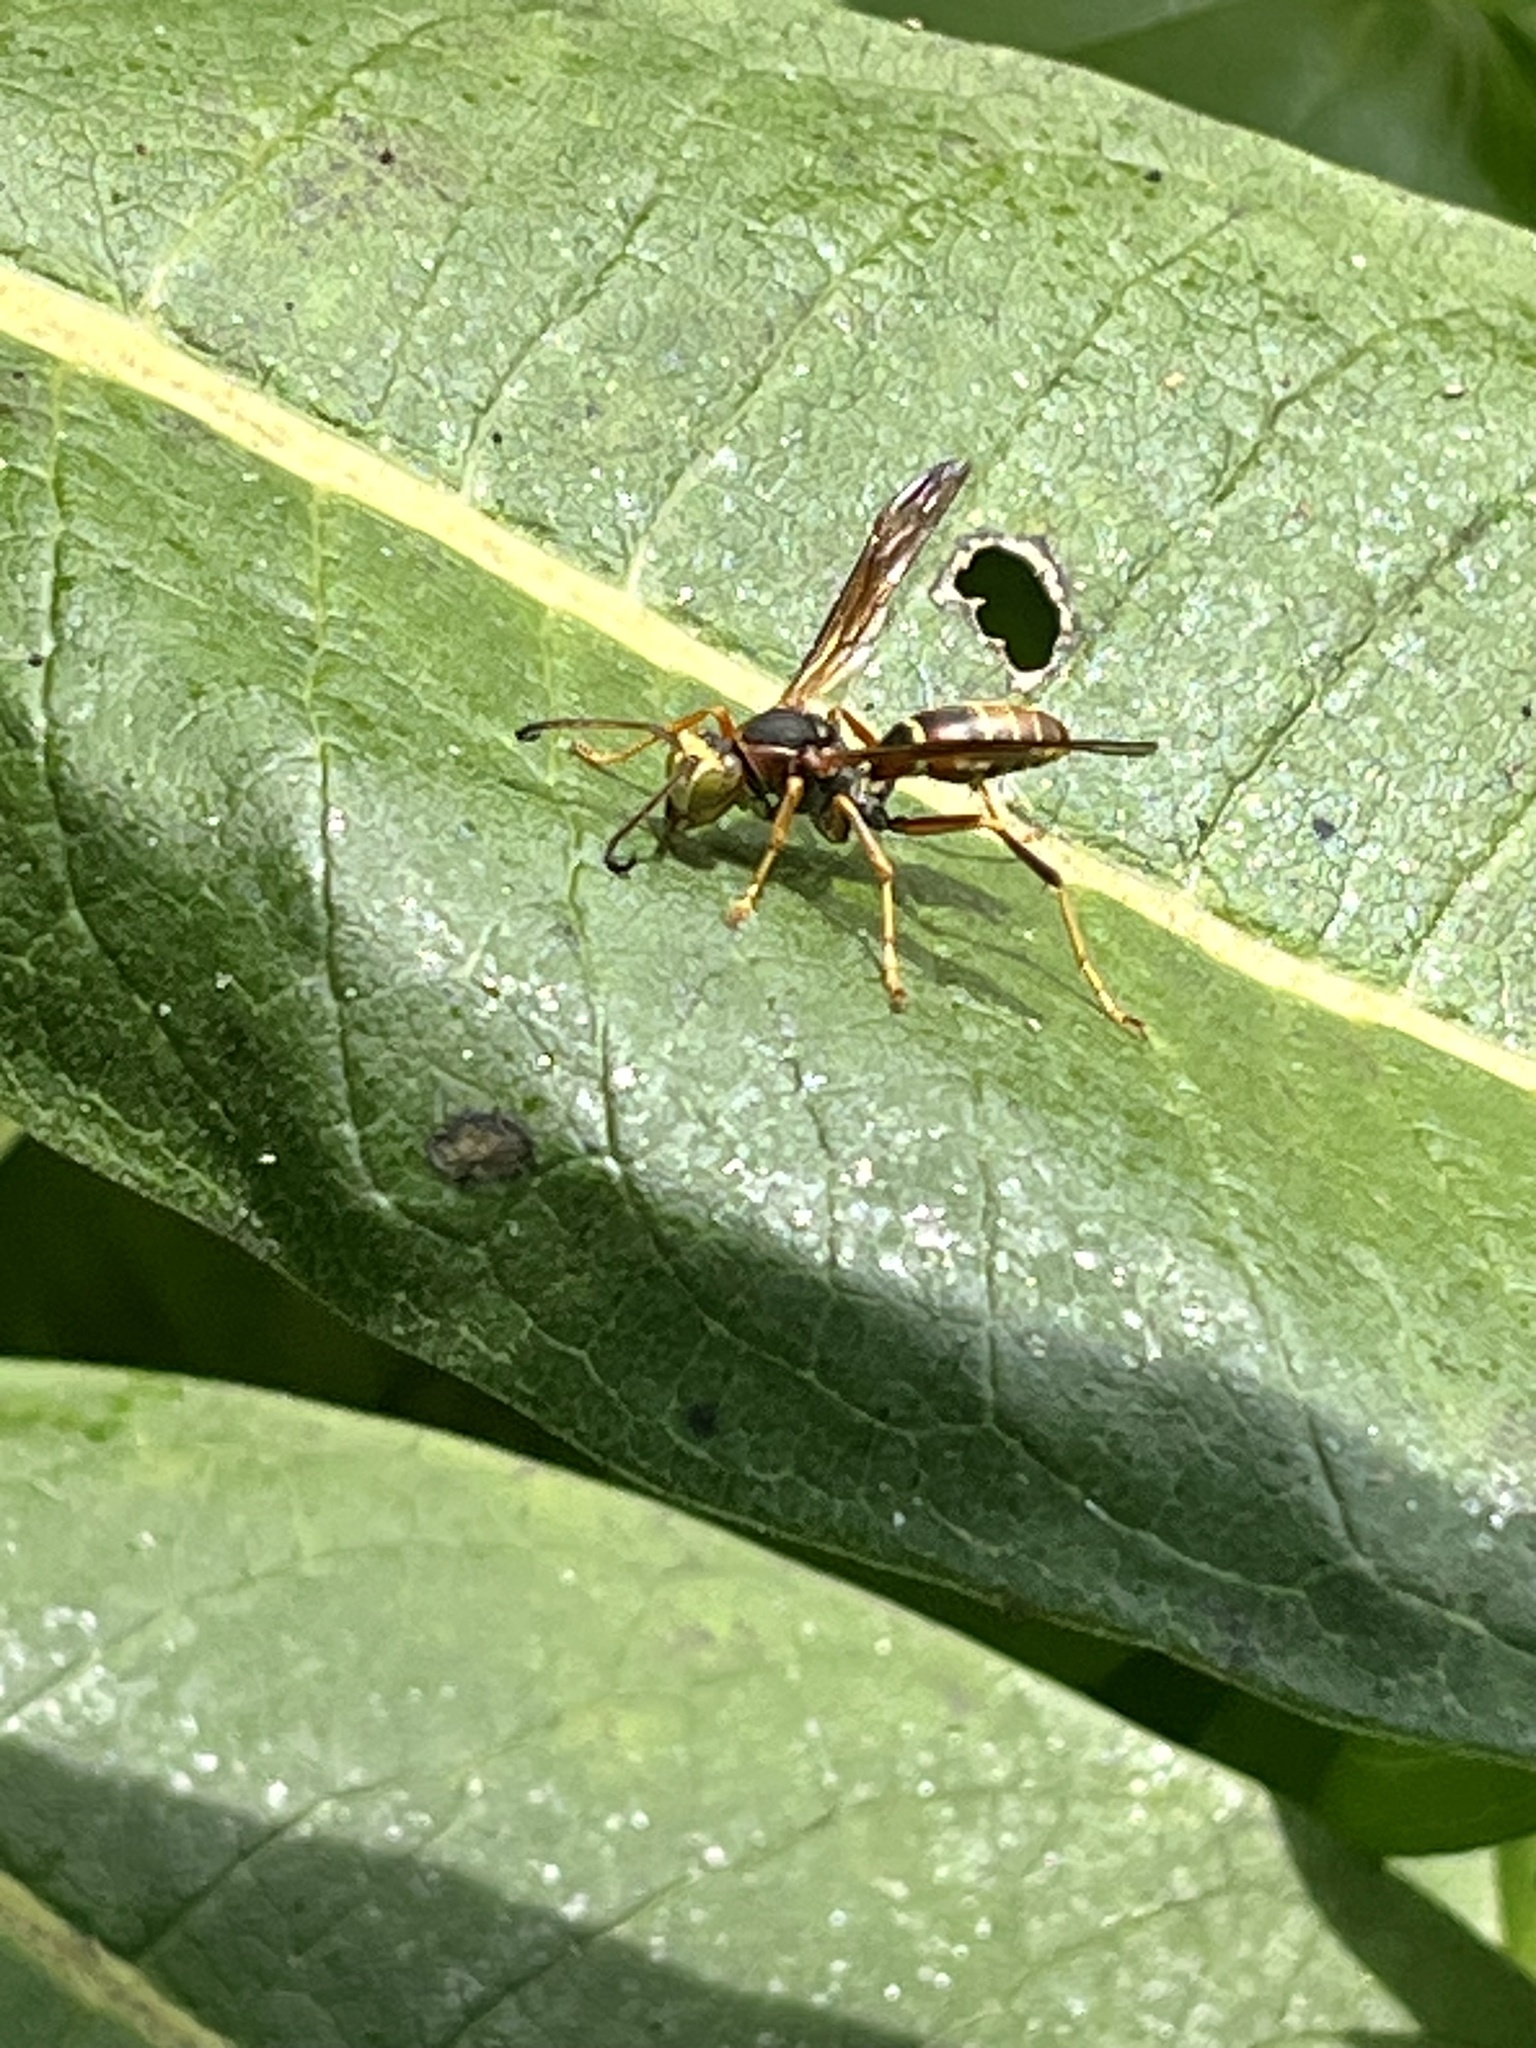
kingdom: Animalia
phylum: Arthropoda
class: Insecta
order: Hymenoptera
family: Eumenidae
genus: Polistes
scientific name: Polistes fuscatus
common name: Dark paper wasp
